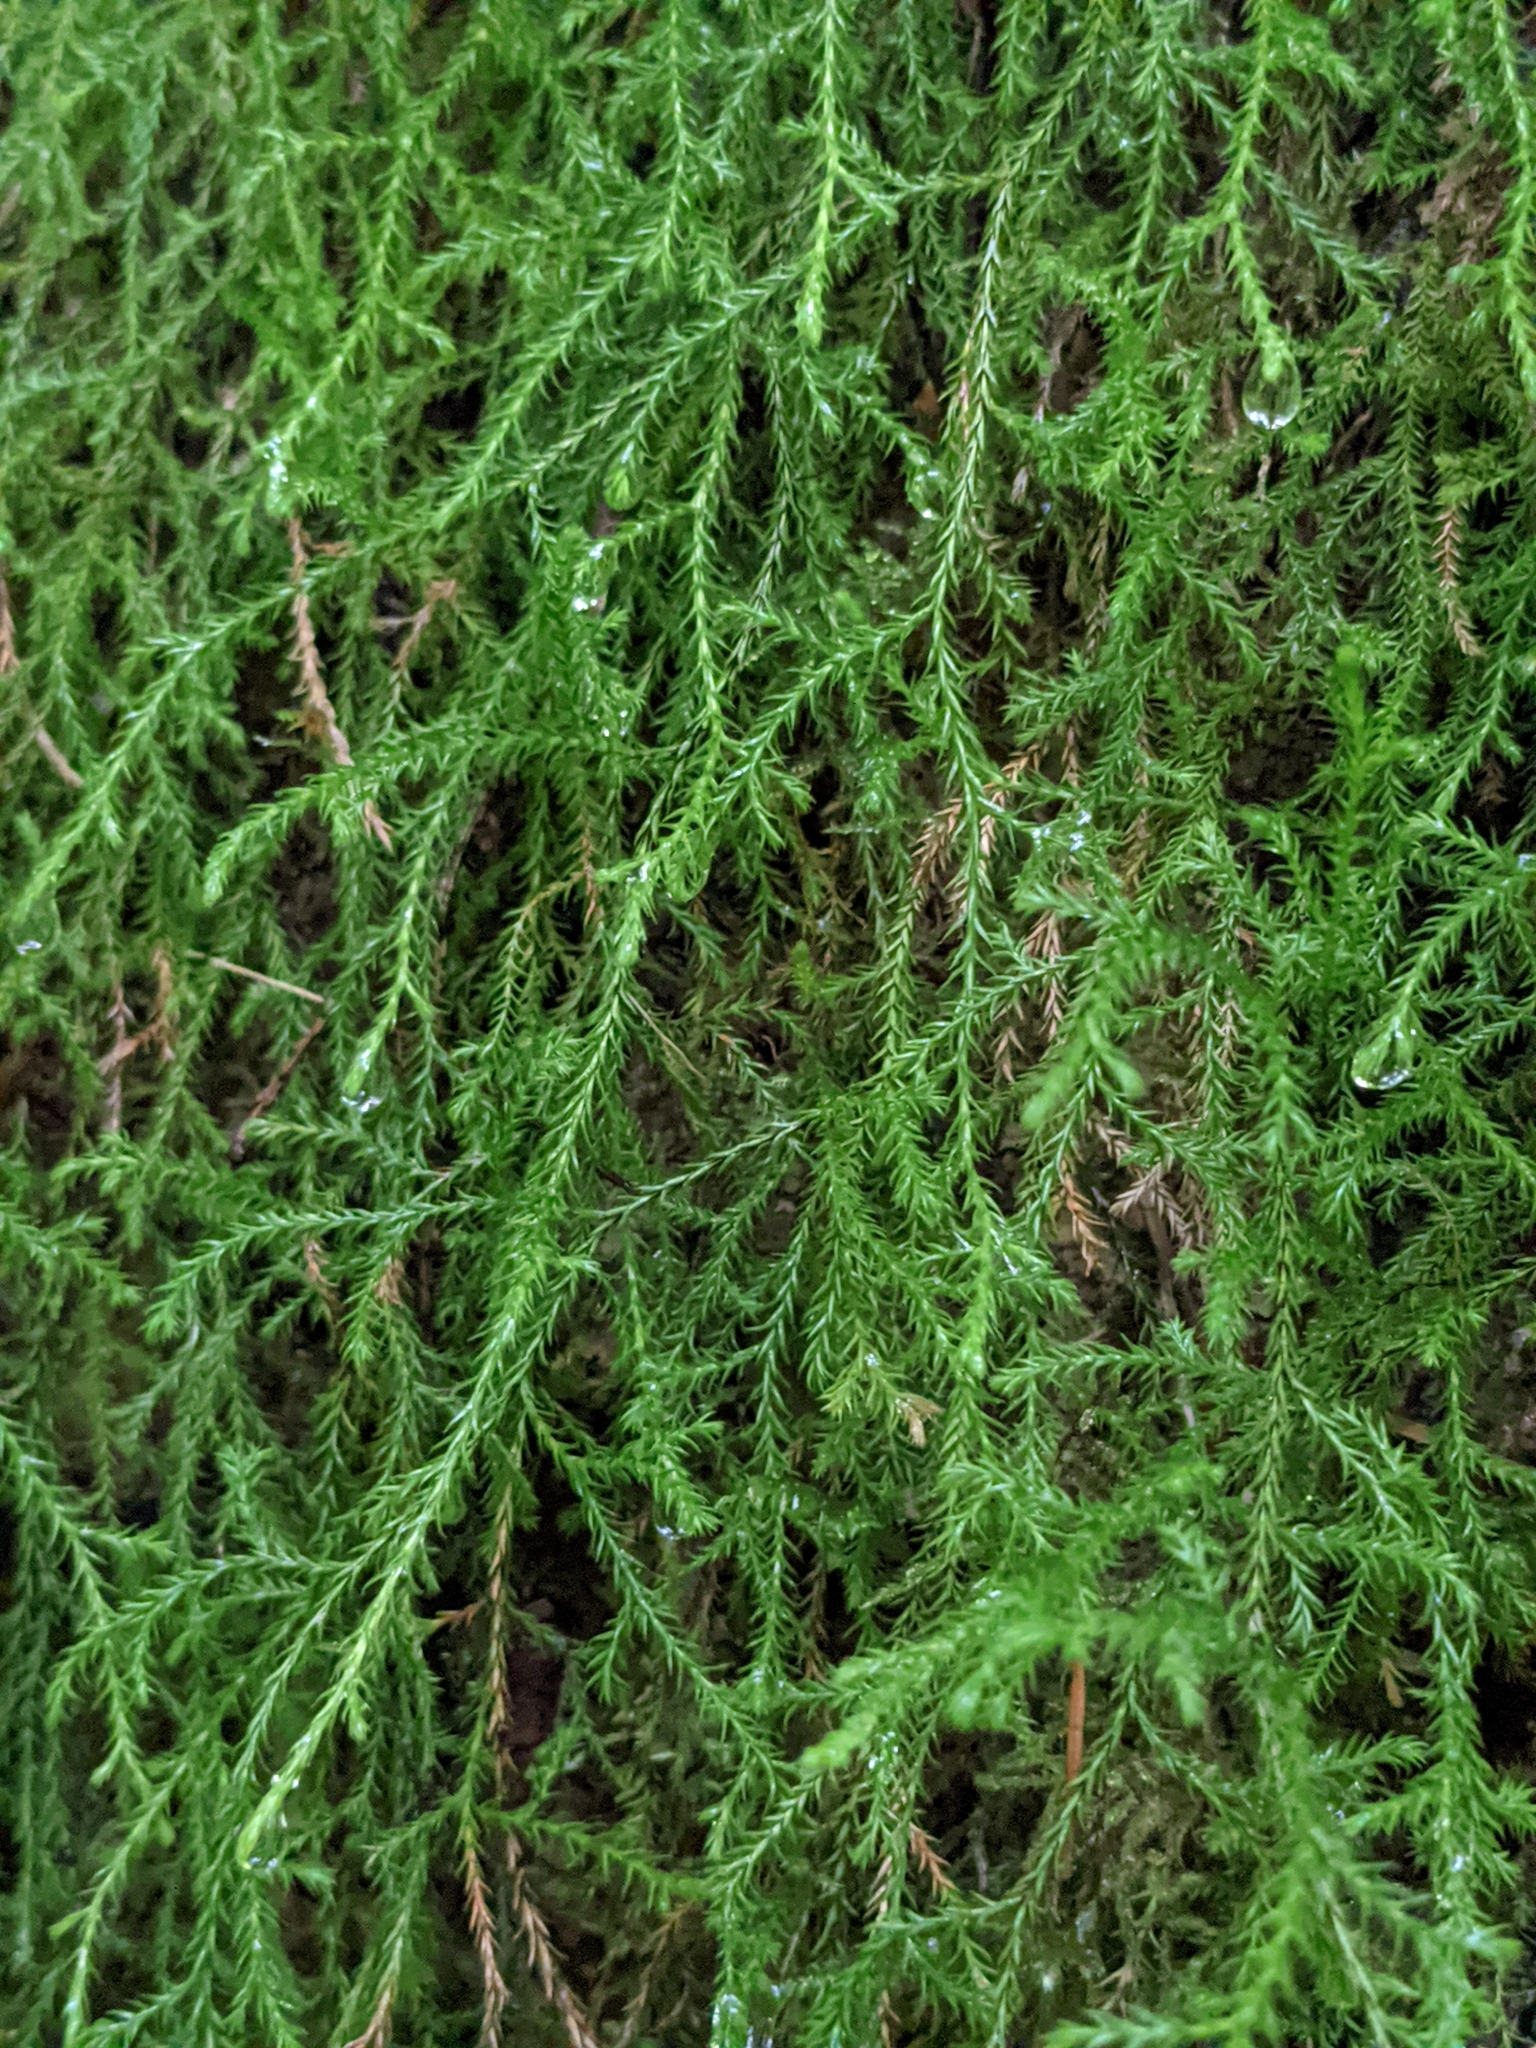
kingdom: Plantae
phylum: Tracheophyta
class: Lycopodiopsida
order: Selaginellales
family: Selaginellaceae
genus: Selaginella
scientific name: Selaginella oregana
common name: Oregon selaginella
